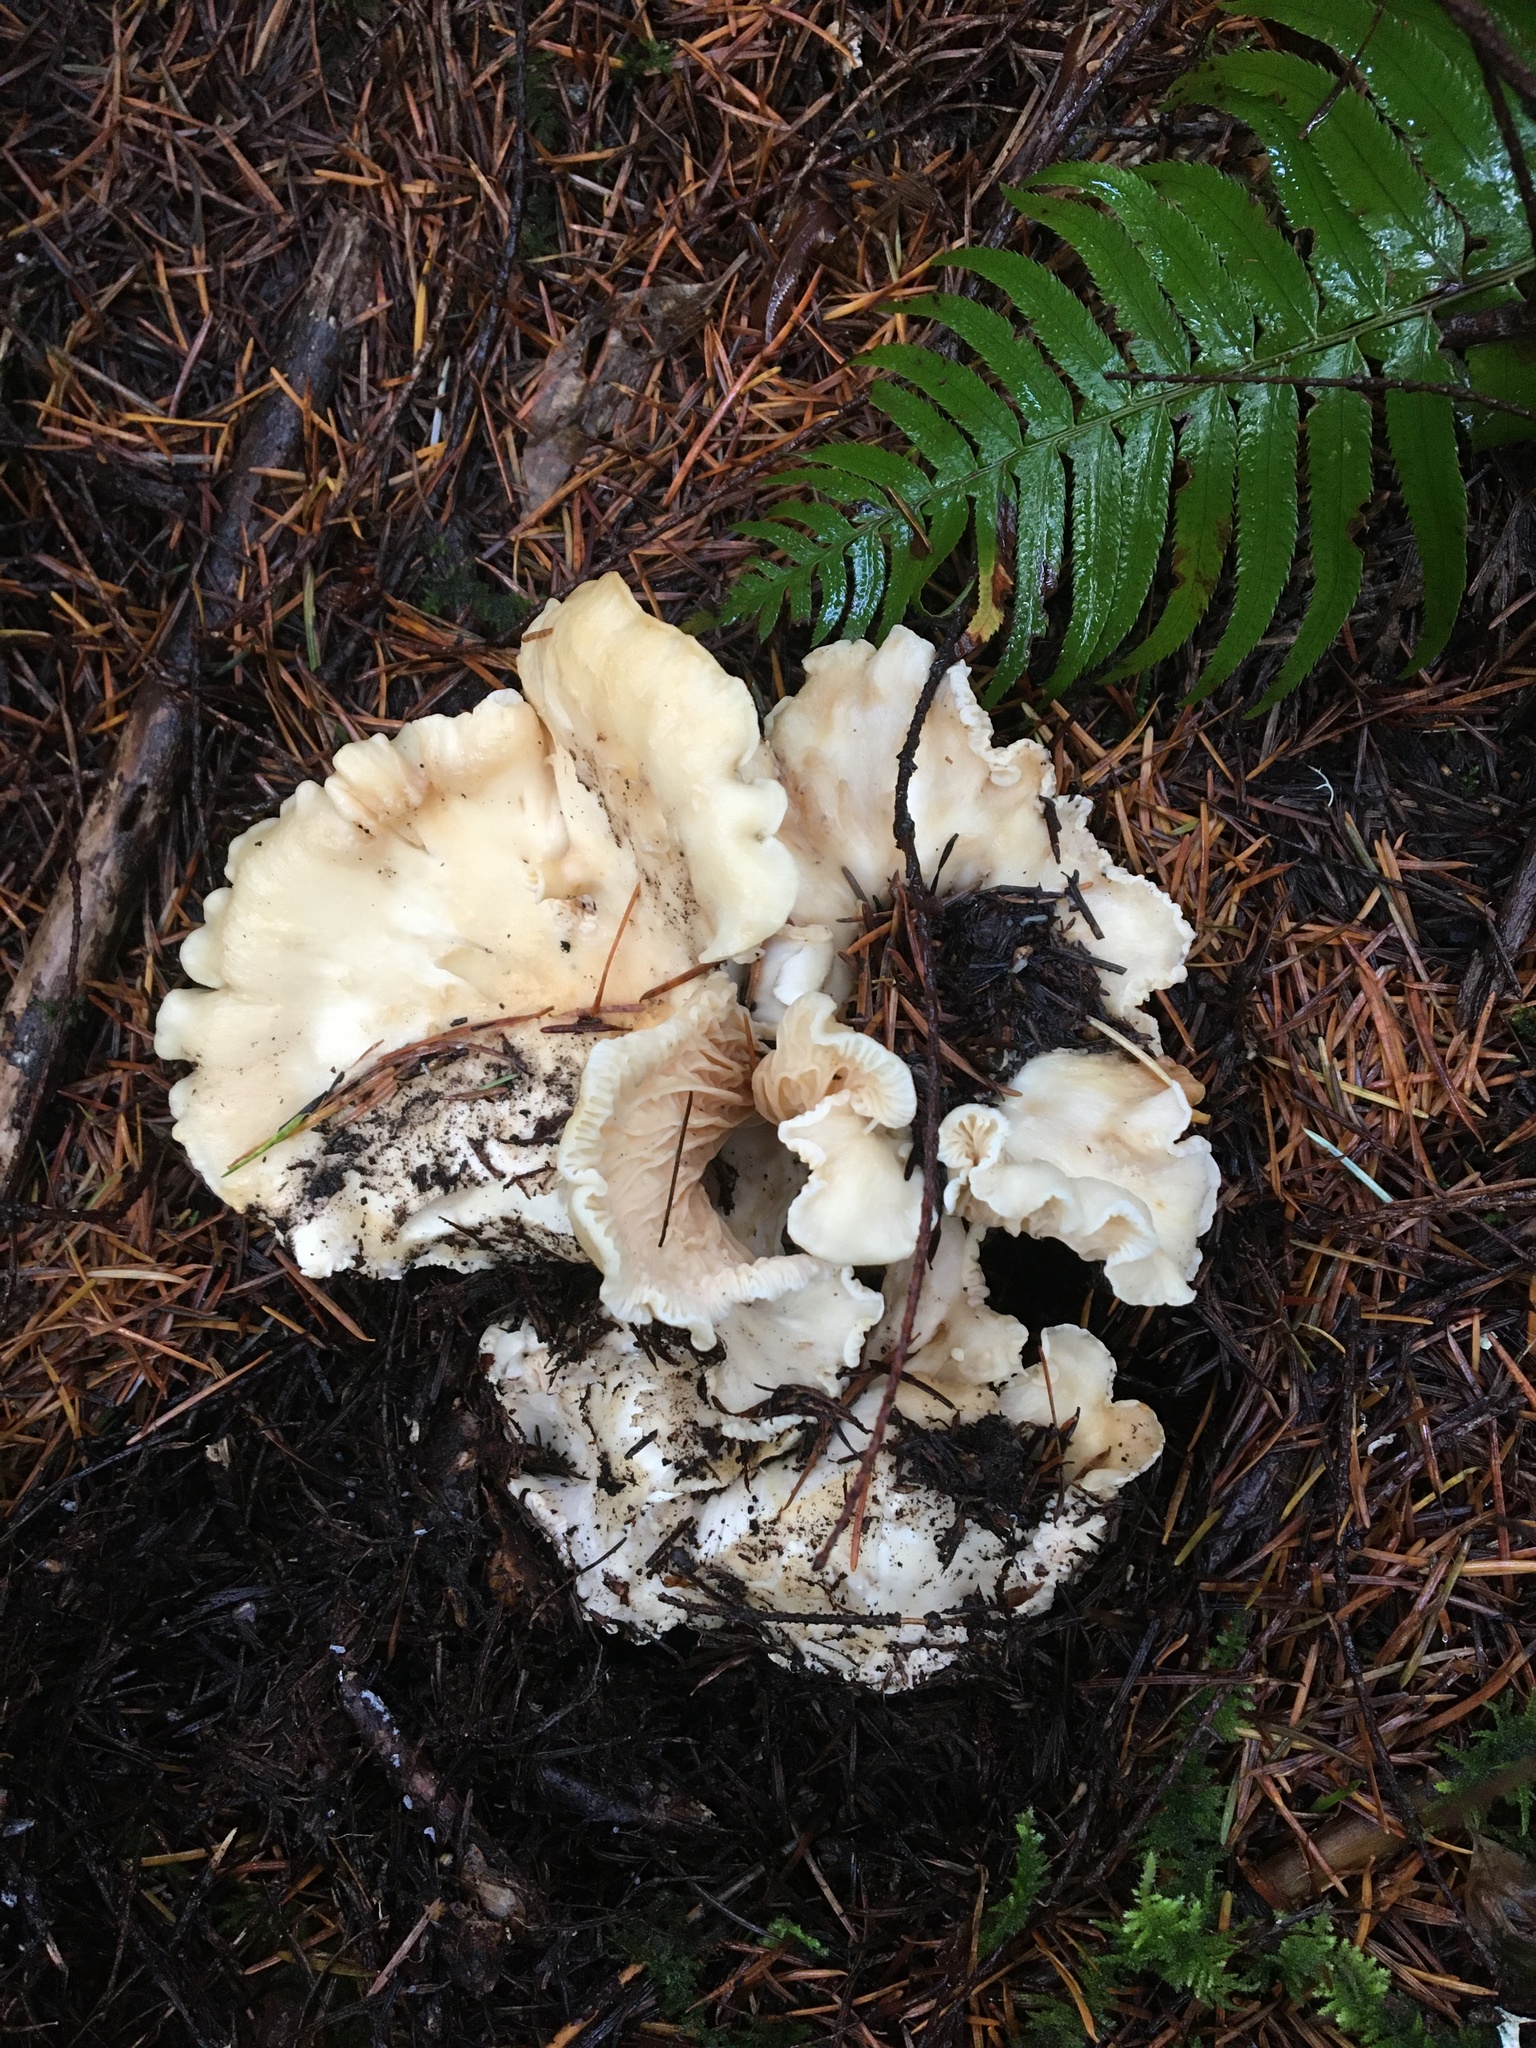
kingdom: Fungi
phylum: Basidiomycota
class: Agaricomycetes
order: Cantharellales
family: Hydnaceae
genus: Cantharellus
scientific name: Cantharellus subalbidus
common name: White chanterelle
